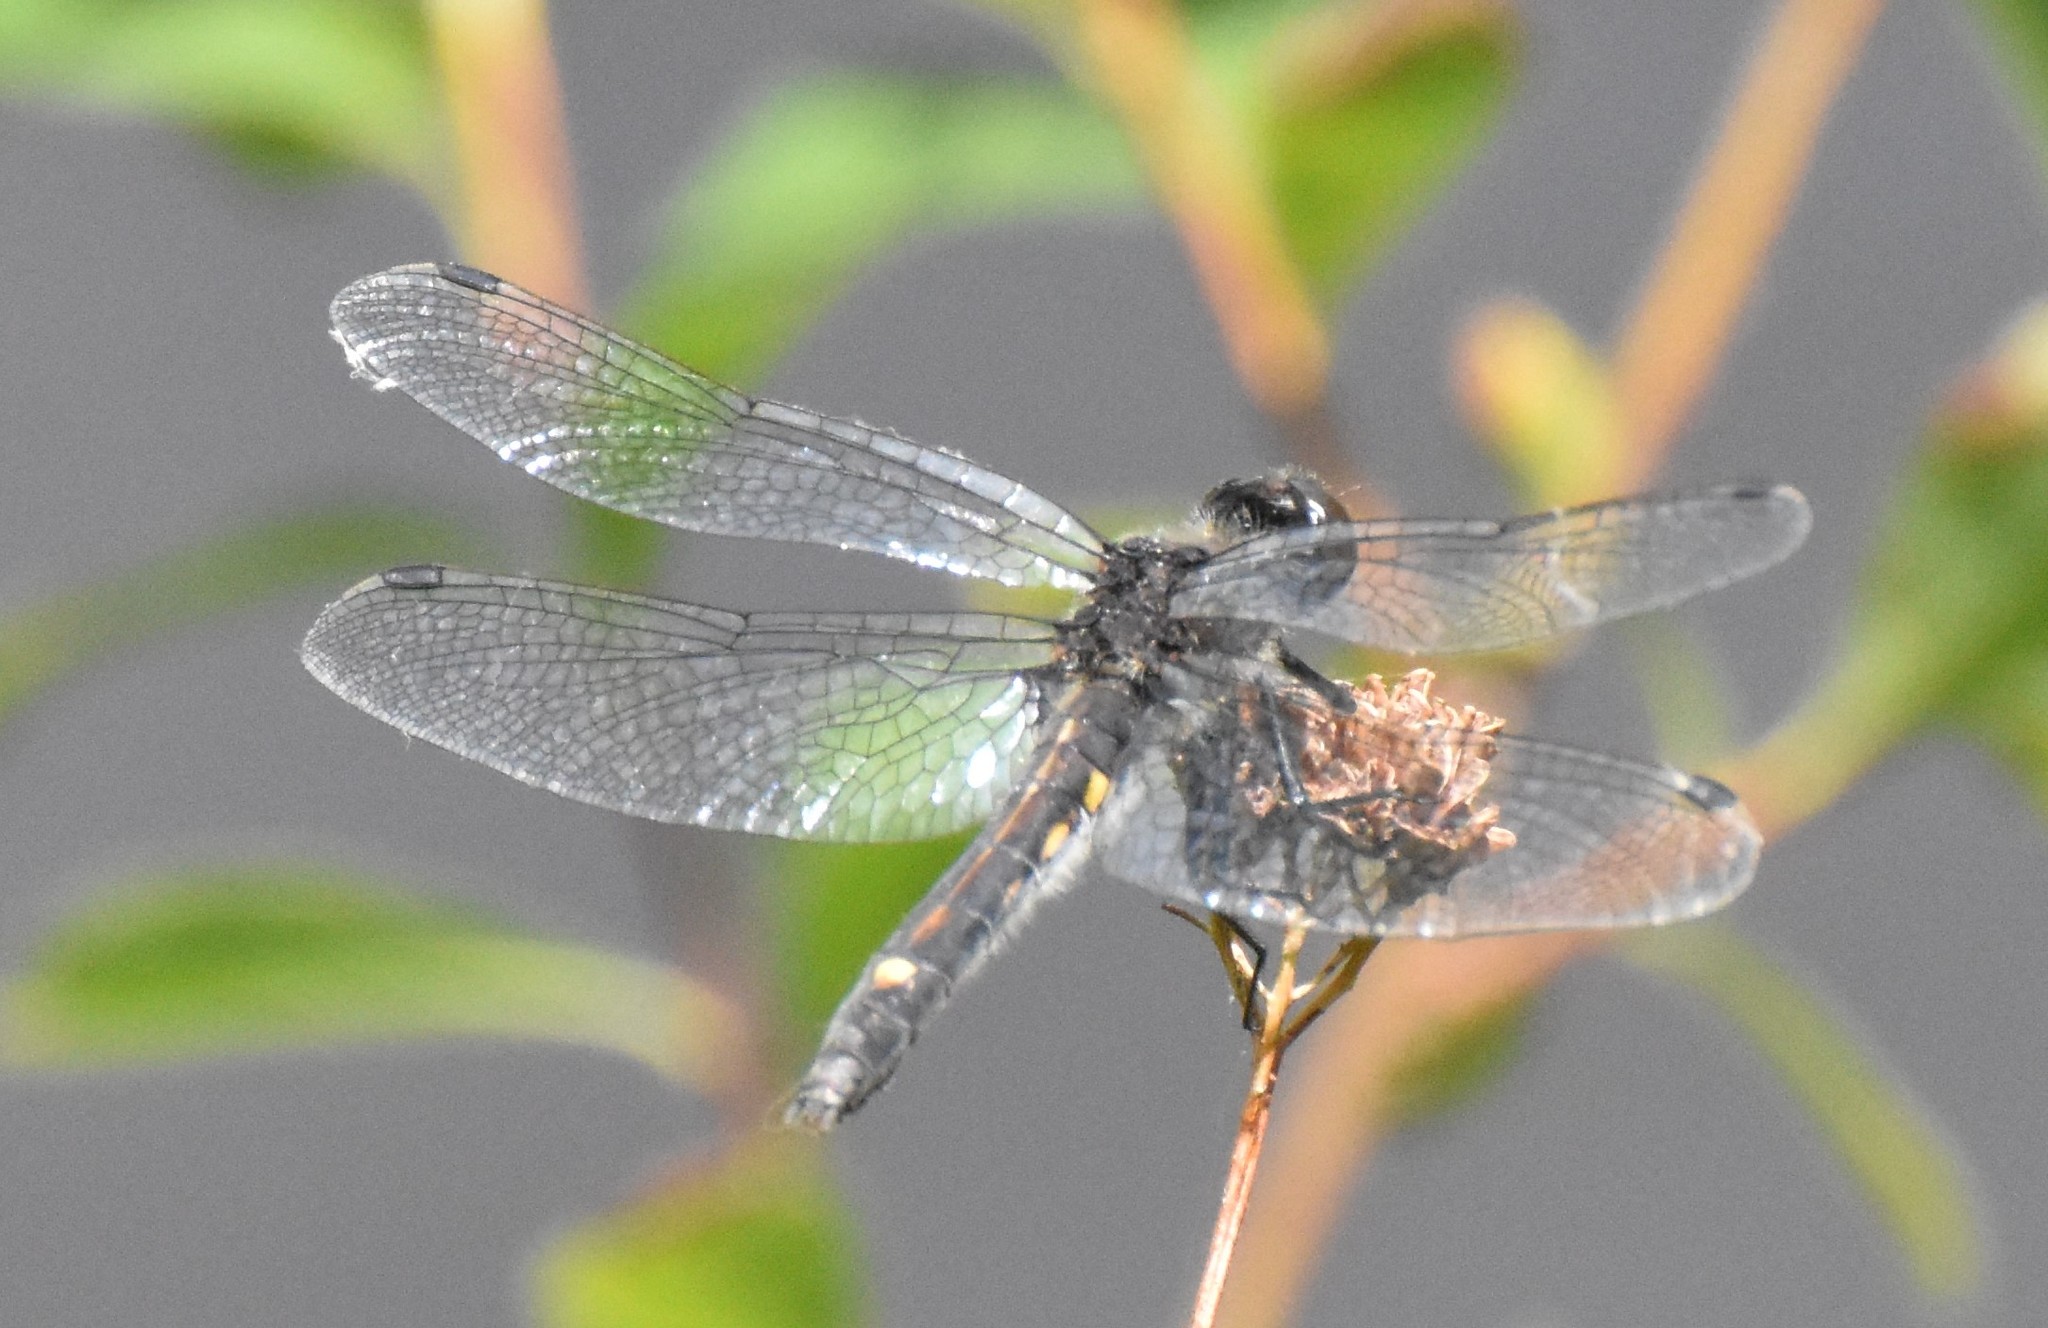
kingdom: Animalia
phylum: Arthropoda
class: Insecta
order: Odonata
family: Libellulidae
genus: Leucorrhinia
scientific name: Leucorrhinia intacta
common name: Dot-tailed whiteface
